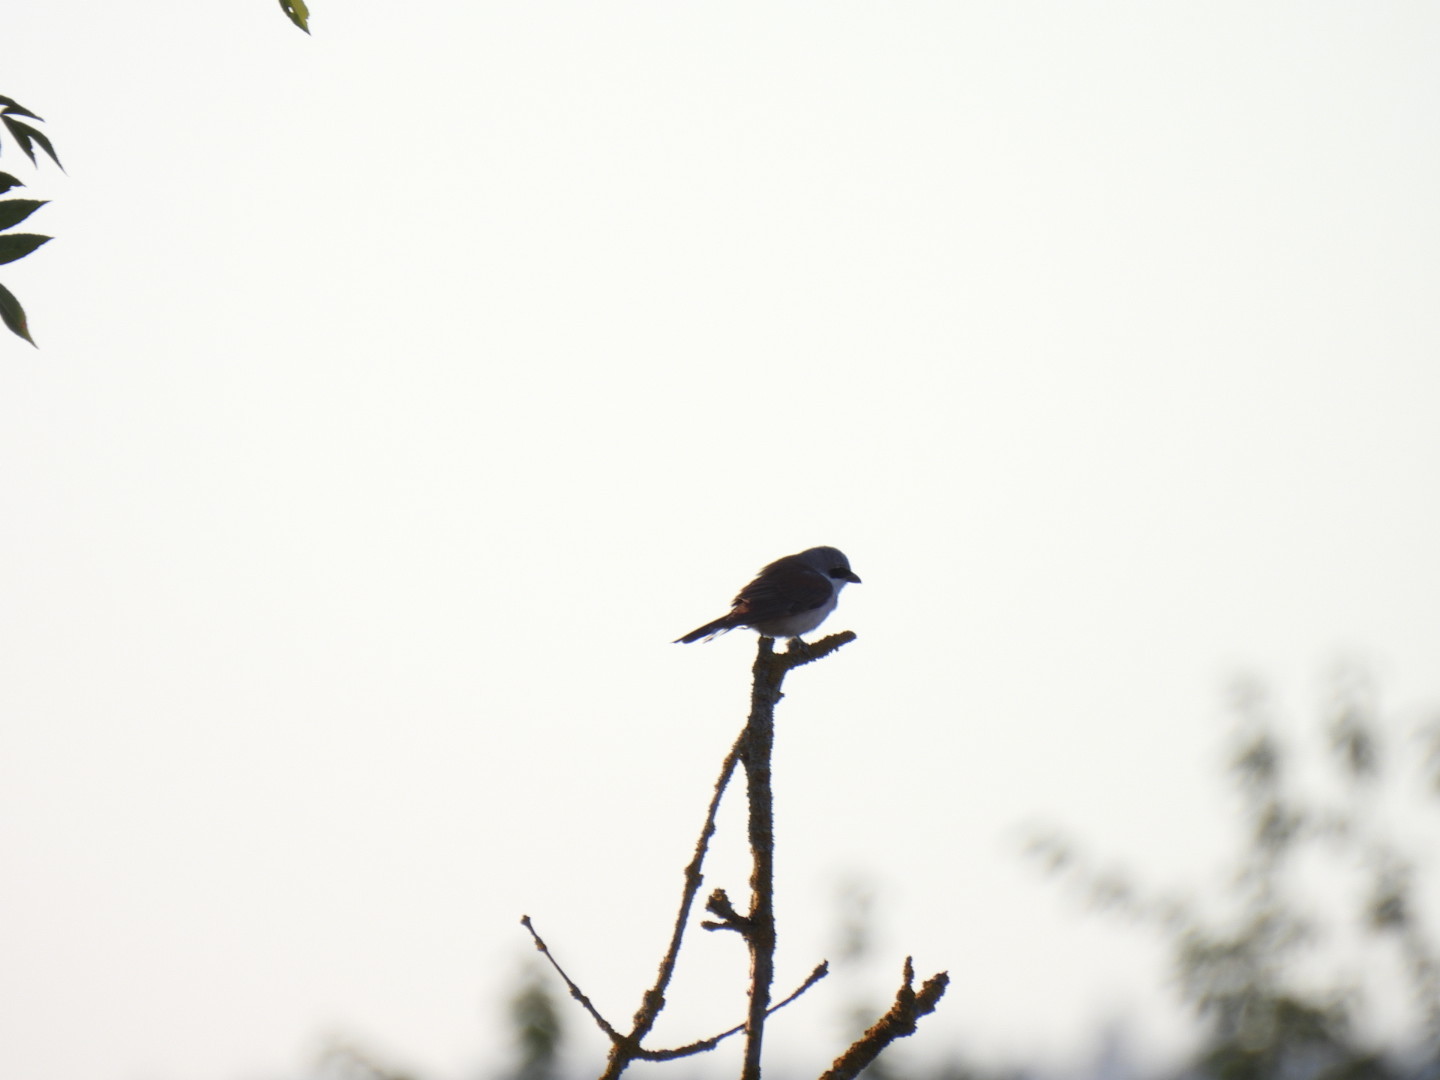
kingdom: Animalia
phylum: Chordata
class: Aves
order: Passeriformes
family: Laniidae
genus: Lanius
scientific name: Lanius collurio
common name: Red-backed shrike
